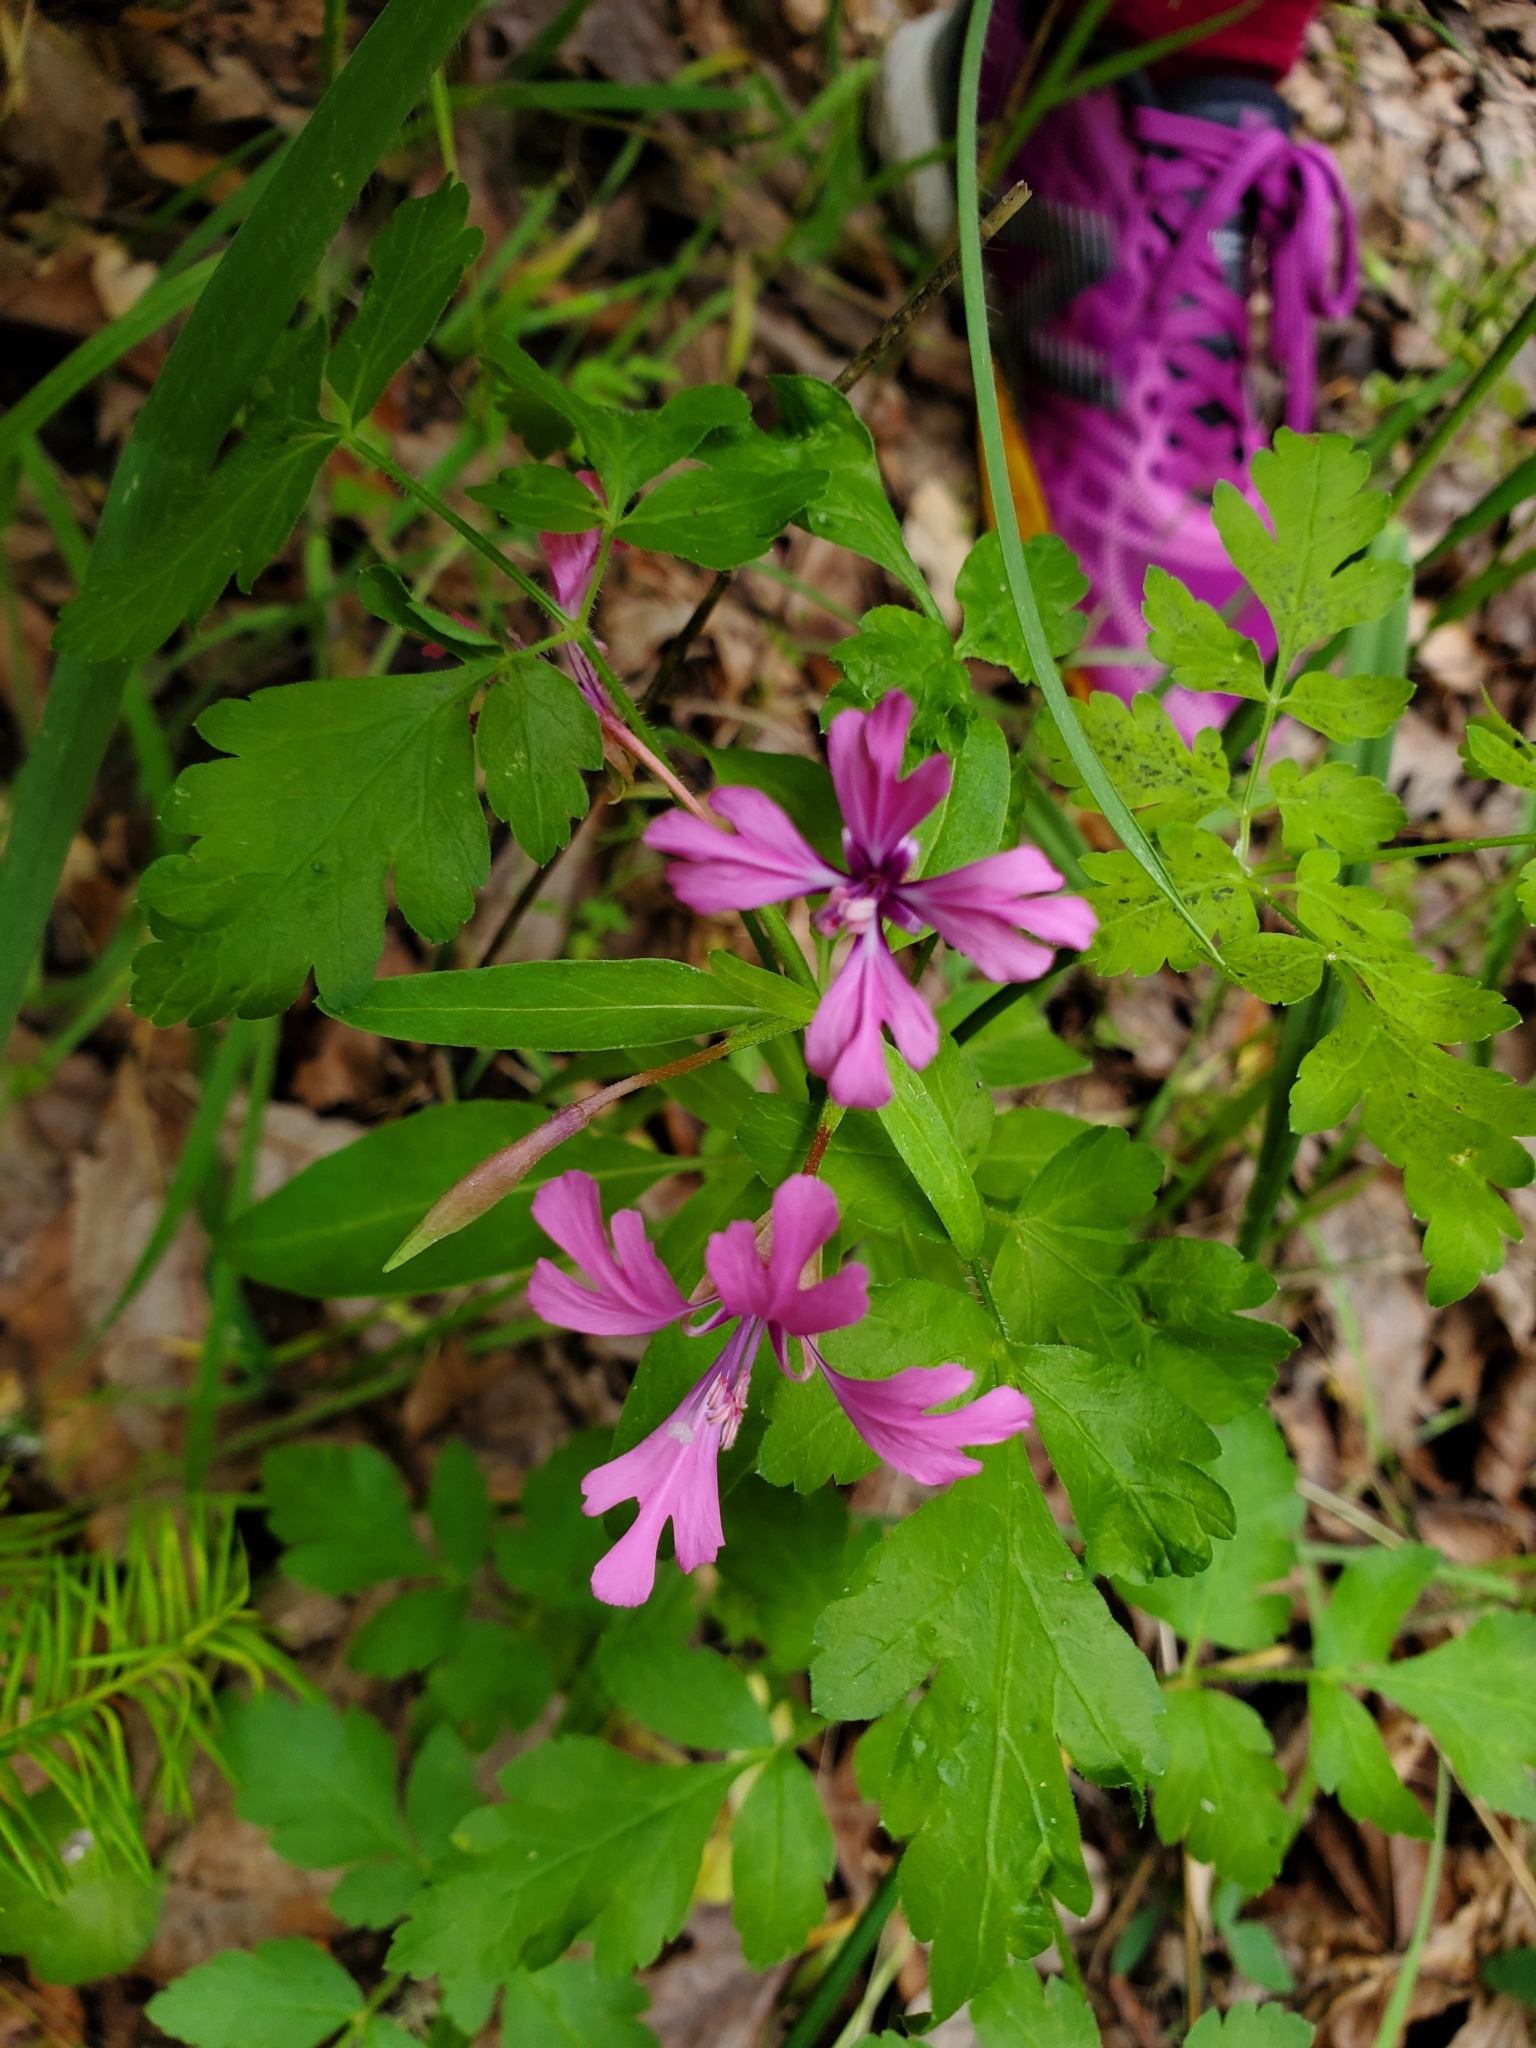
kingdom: Plantae
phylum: Tracheophyta
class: Magnoliopsida
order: Myrtales
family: Onagraceae
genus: Clarkia
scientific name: Clarkia concinna
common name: Red-ribbons
